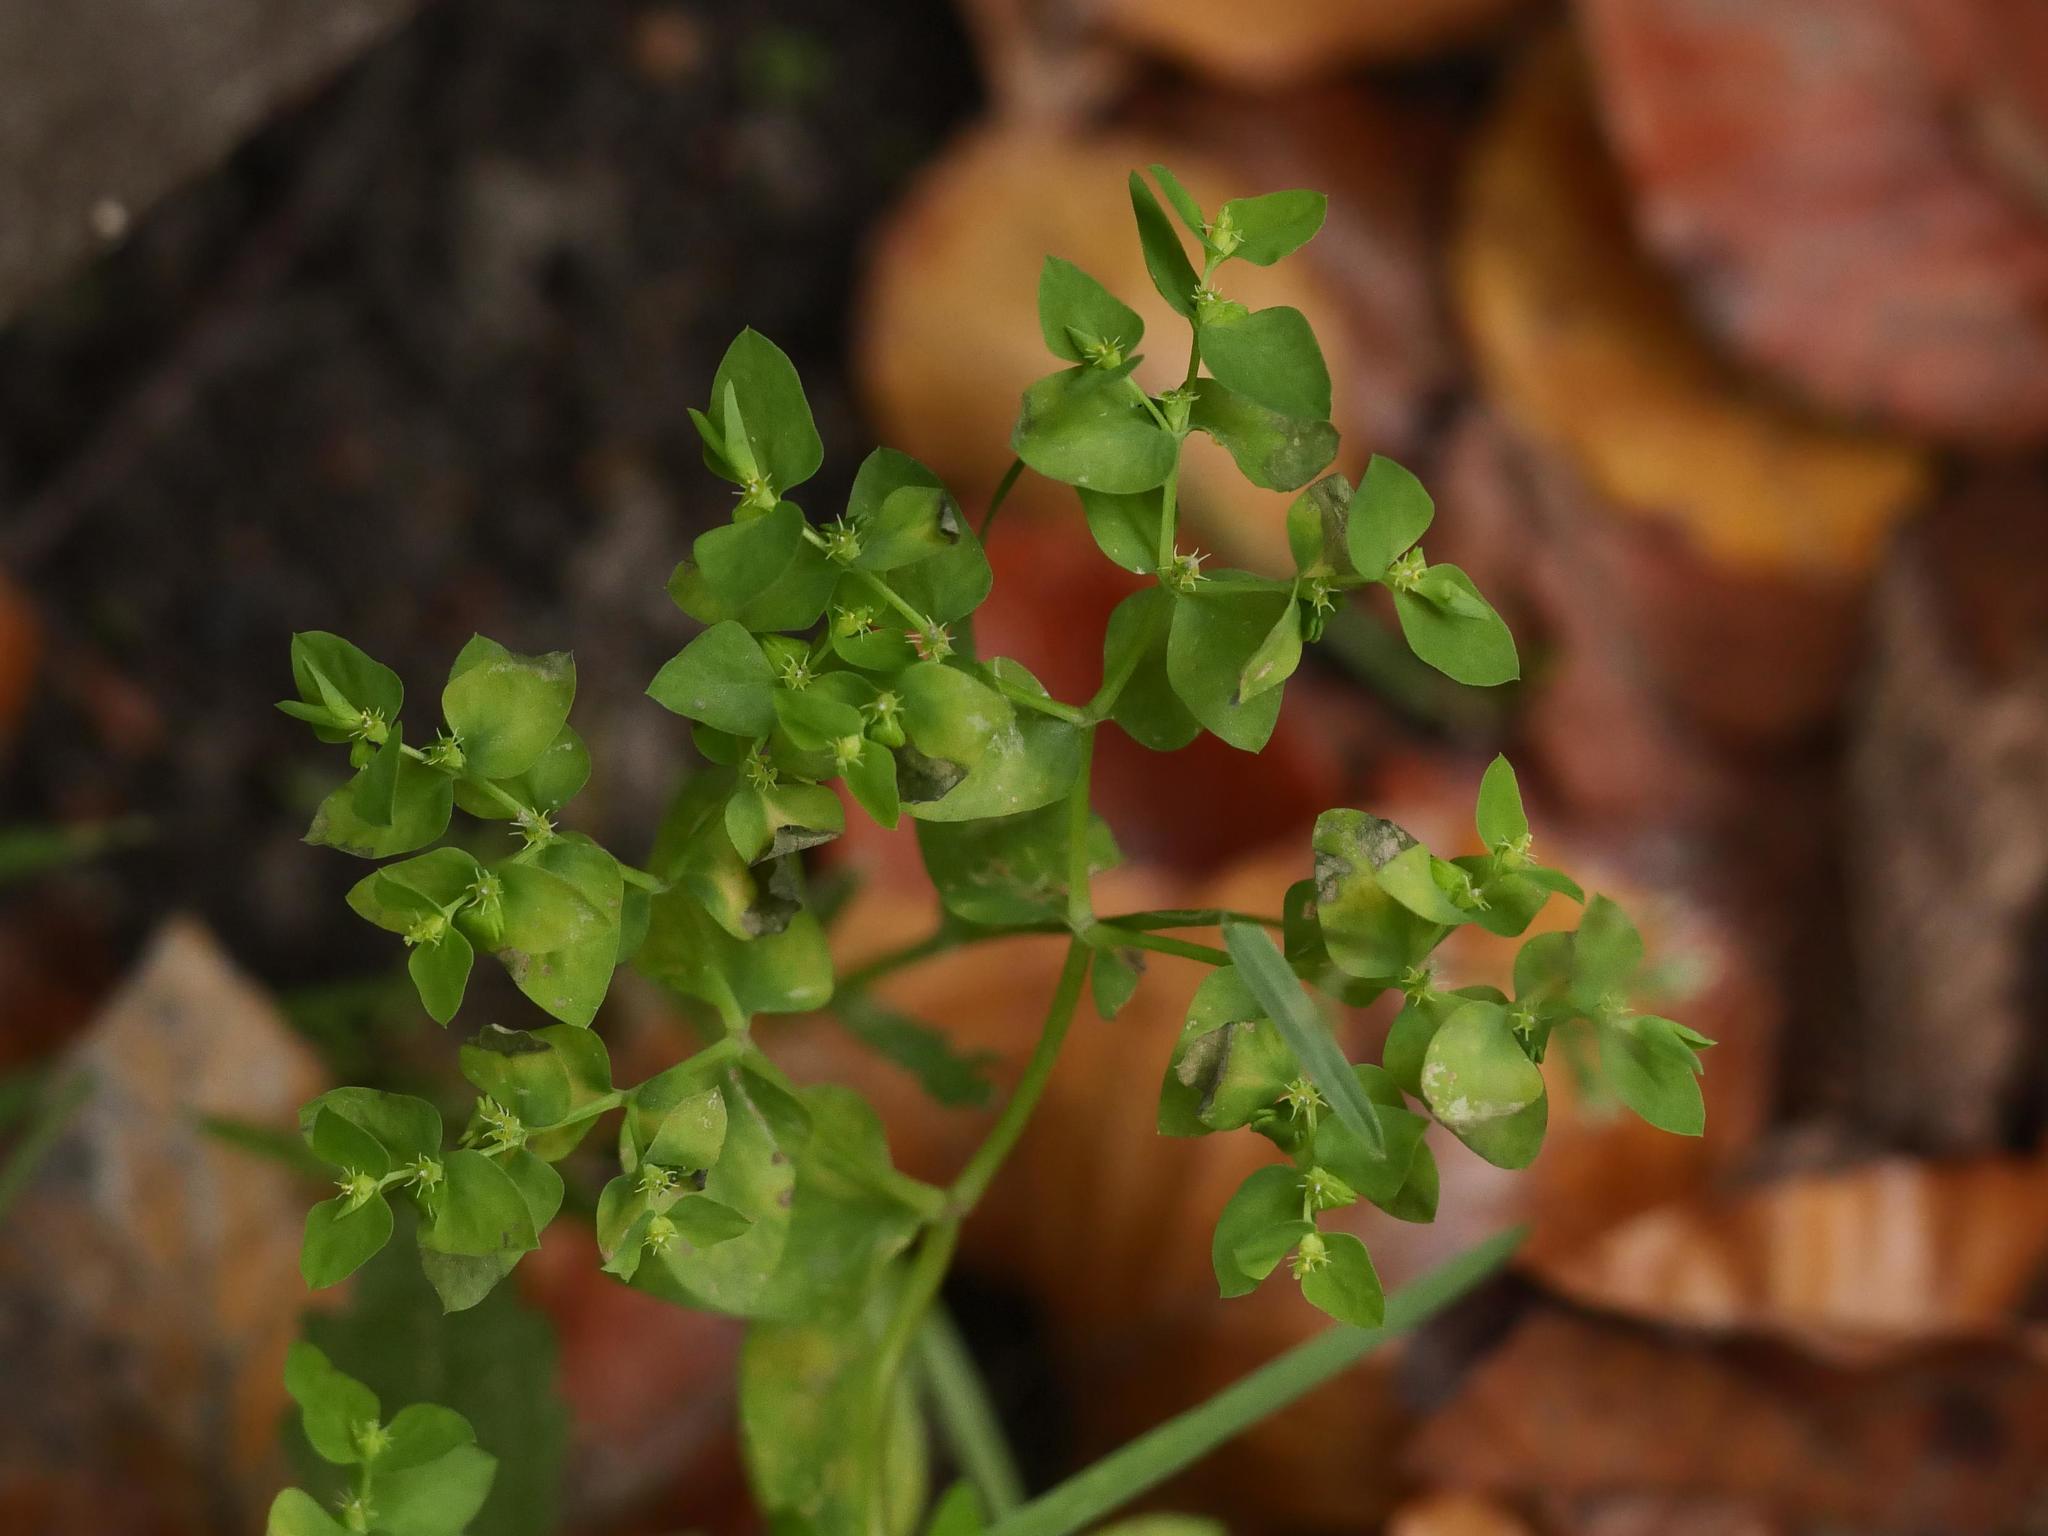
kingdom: Plantae
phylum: Tracheophyta
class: Magnoliopsida
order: Malpighiales
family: Euphorbiaceae
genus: Euphorbia
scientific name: Euphorbia peplus
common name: Petty spurge
